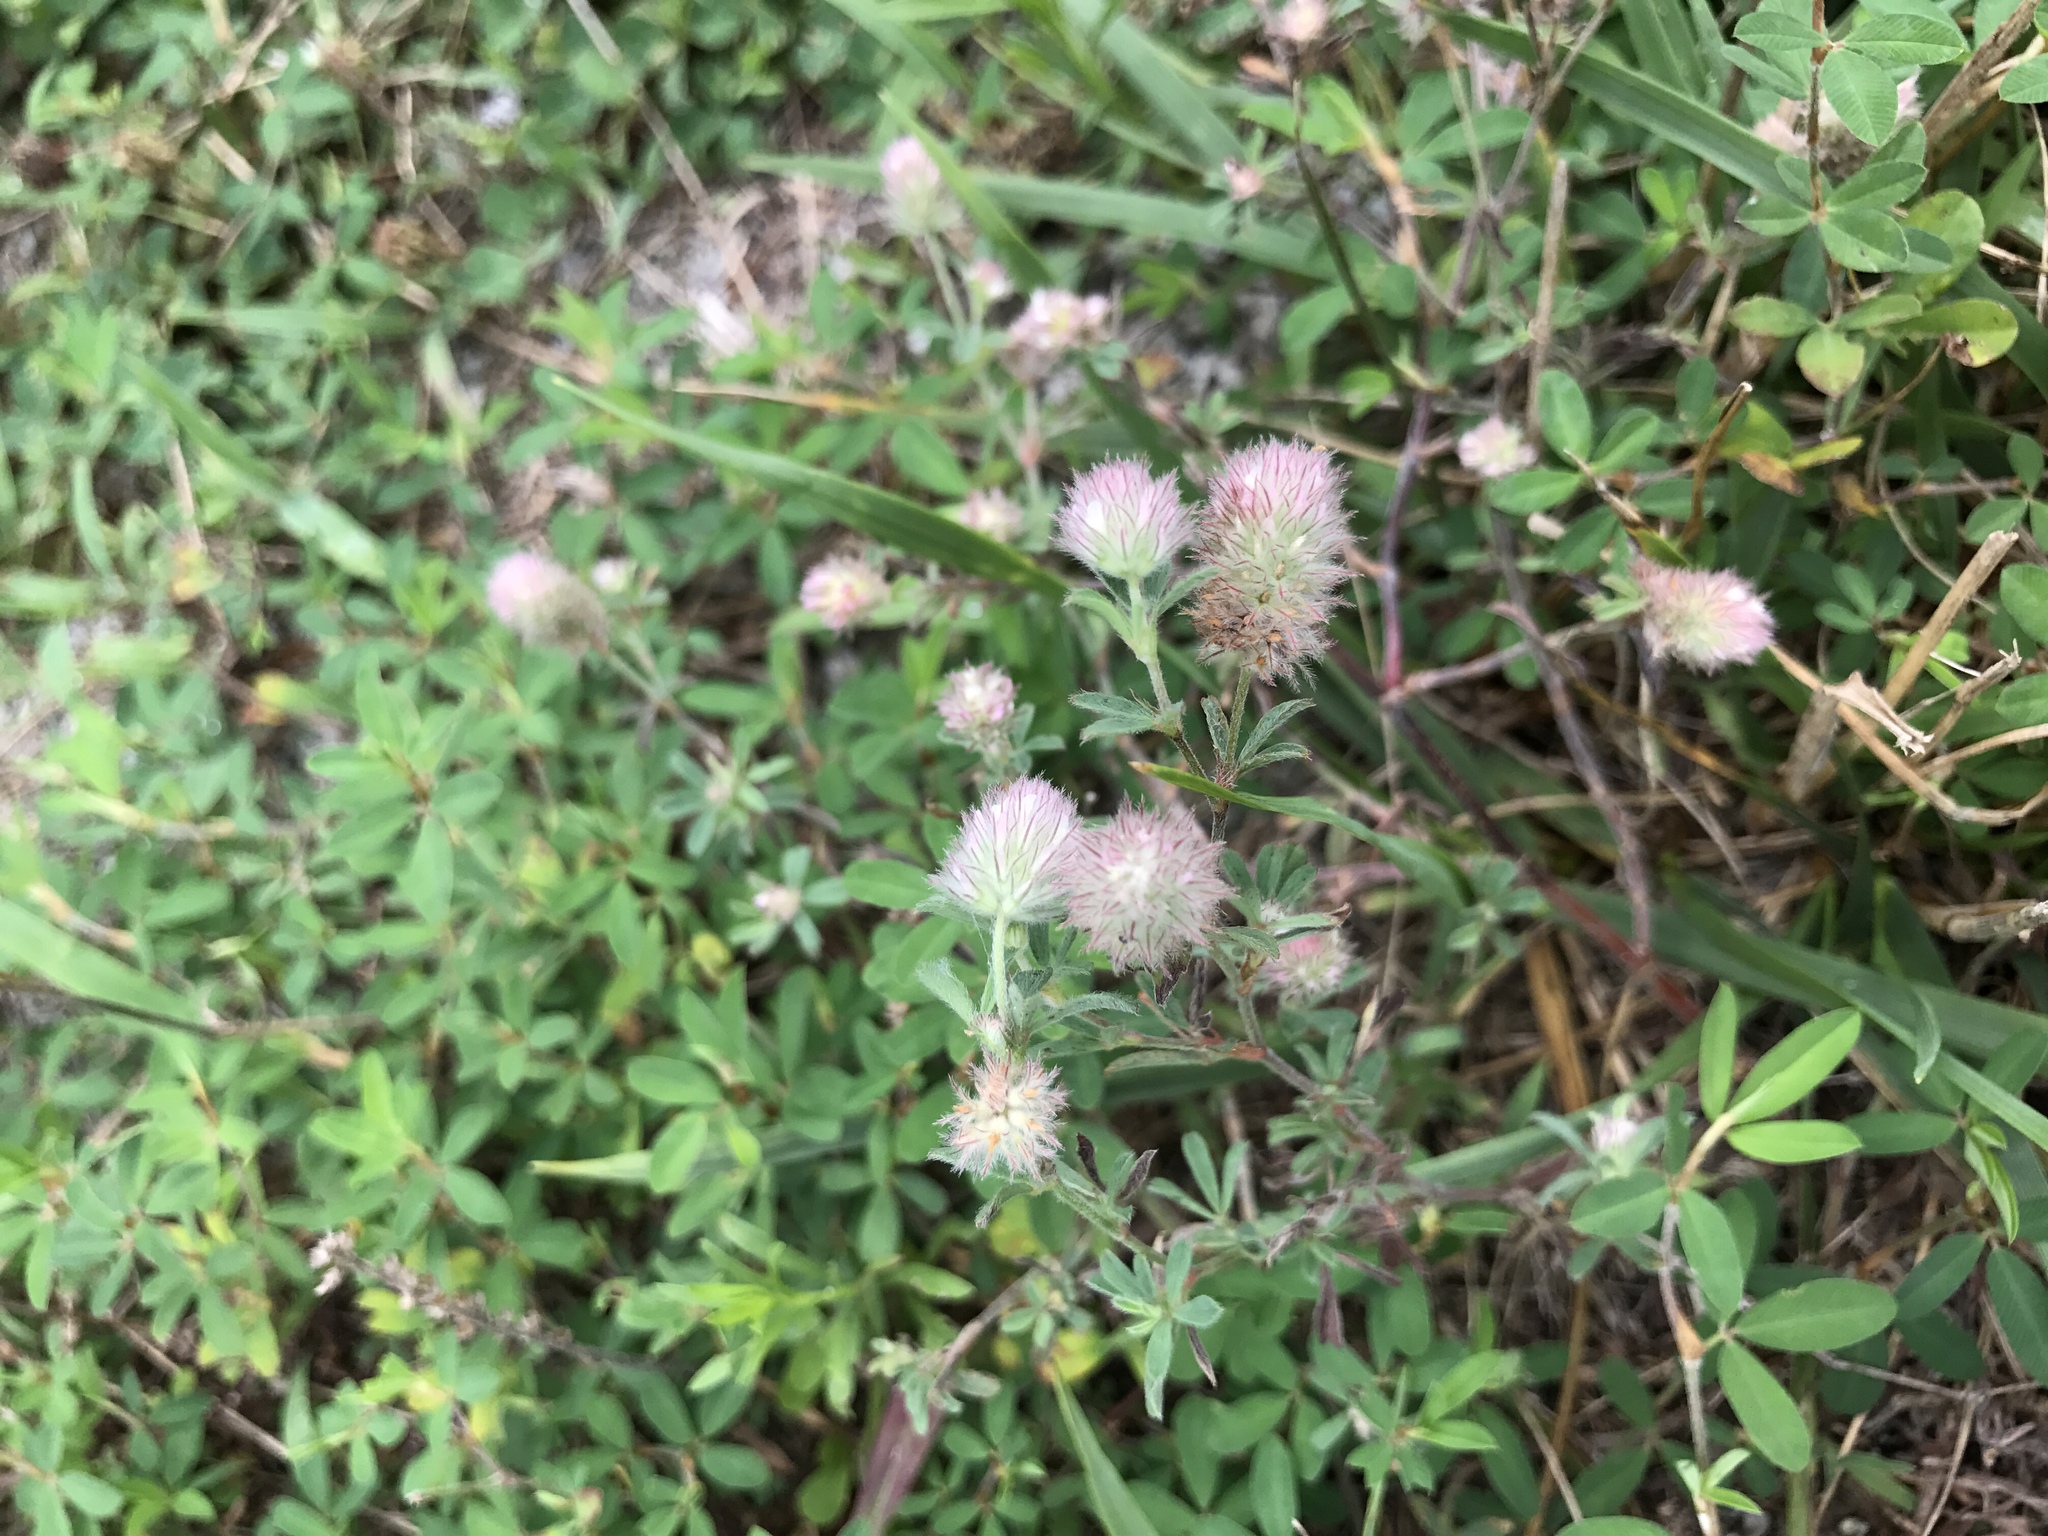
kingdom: Plantae
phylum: Tracheophyta
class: Magnoliopsida
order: Fabales
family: Fabaceae
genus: Trifolium
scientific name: Trifolium arvense
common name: Hare's-foot clover
